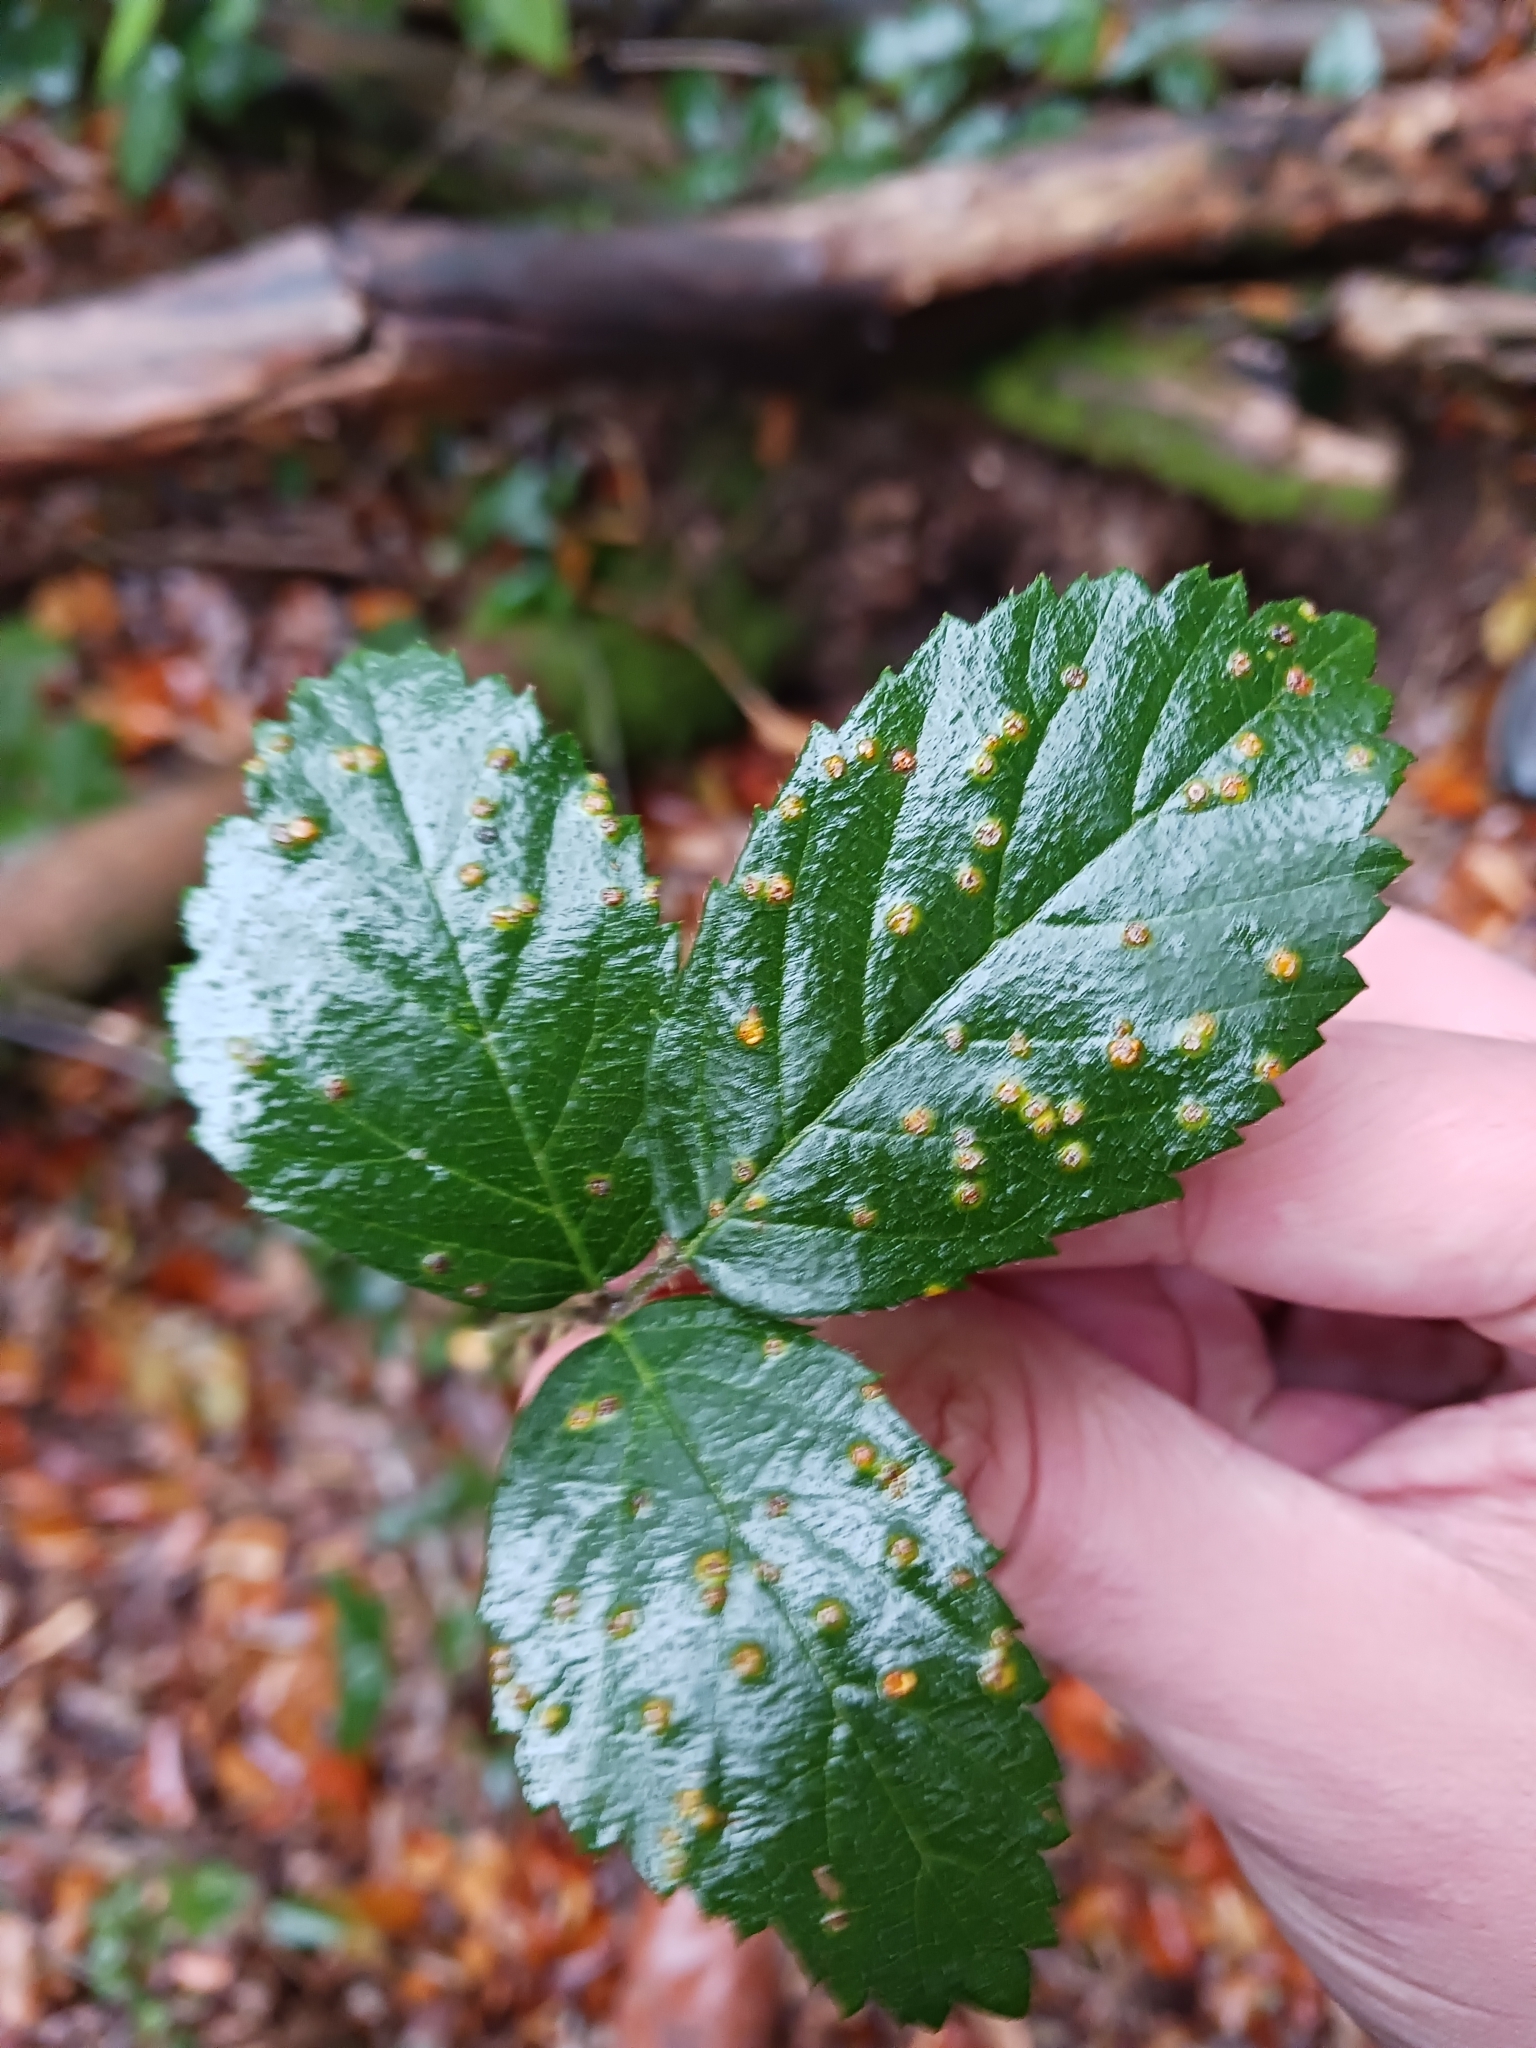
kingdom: Fungi
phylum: Basidiomycota
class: Pucciniomycetes
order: Pucciniales
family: Phragmidiaceae
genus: Kuehneola
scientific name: Kuehneola uredinis
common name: Bramble stem rust
